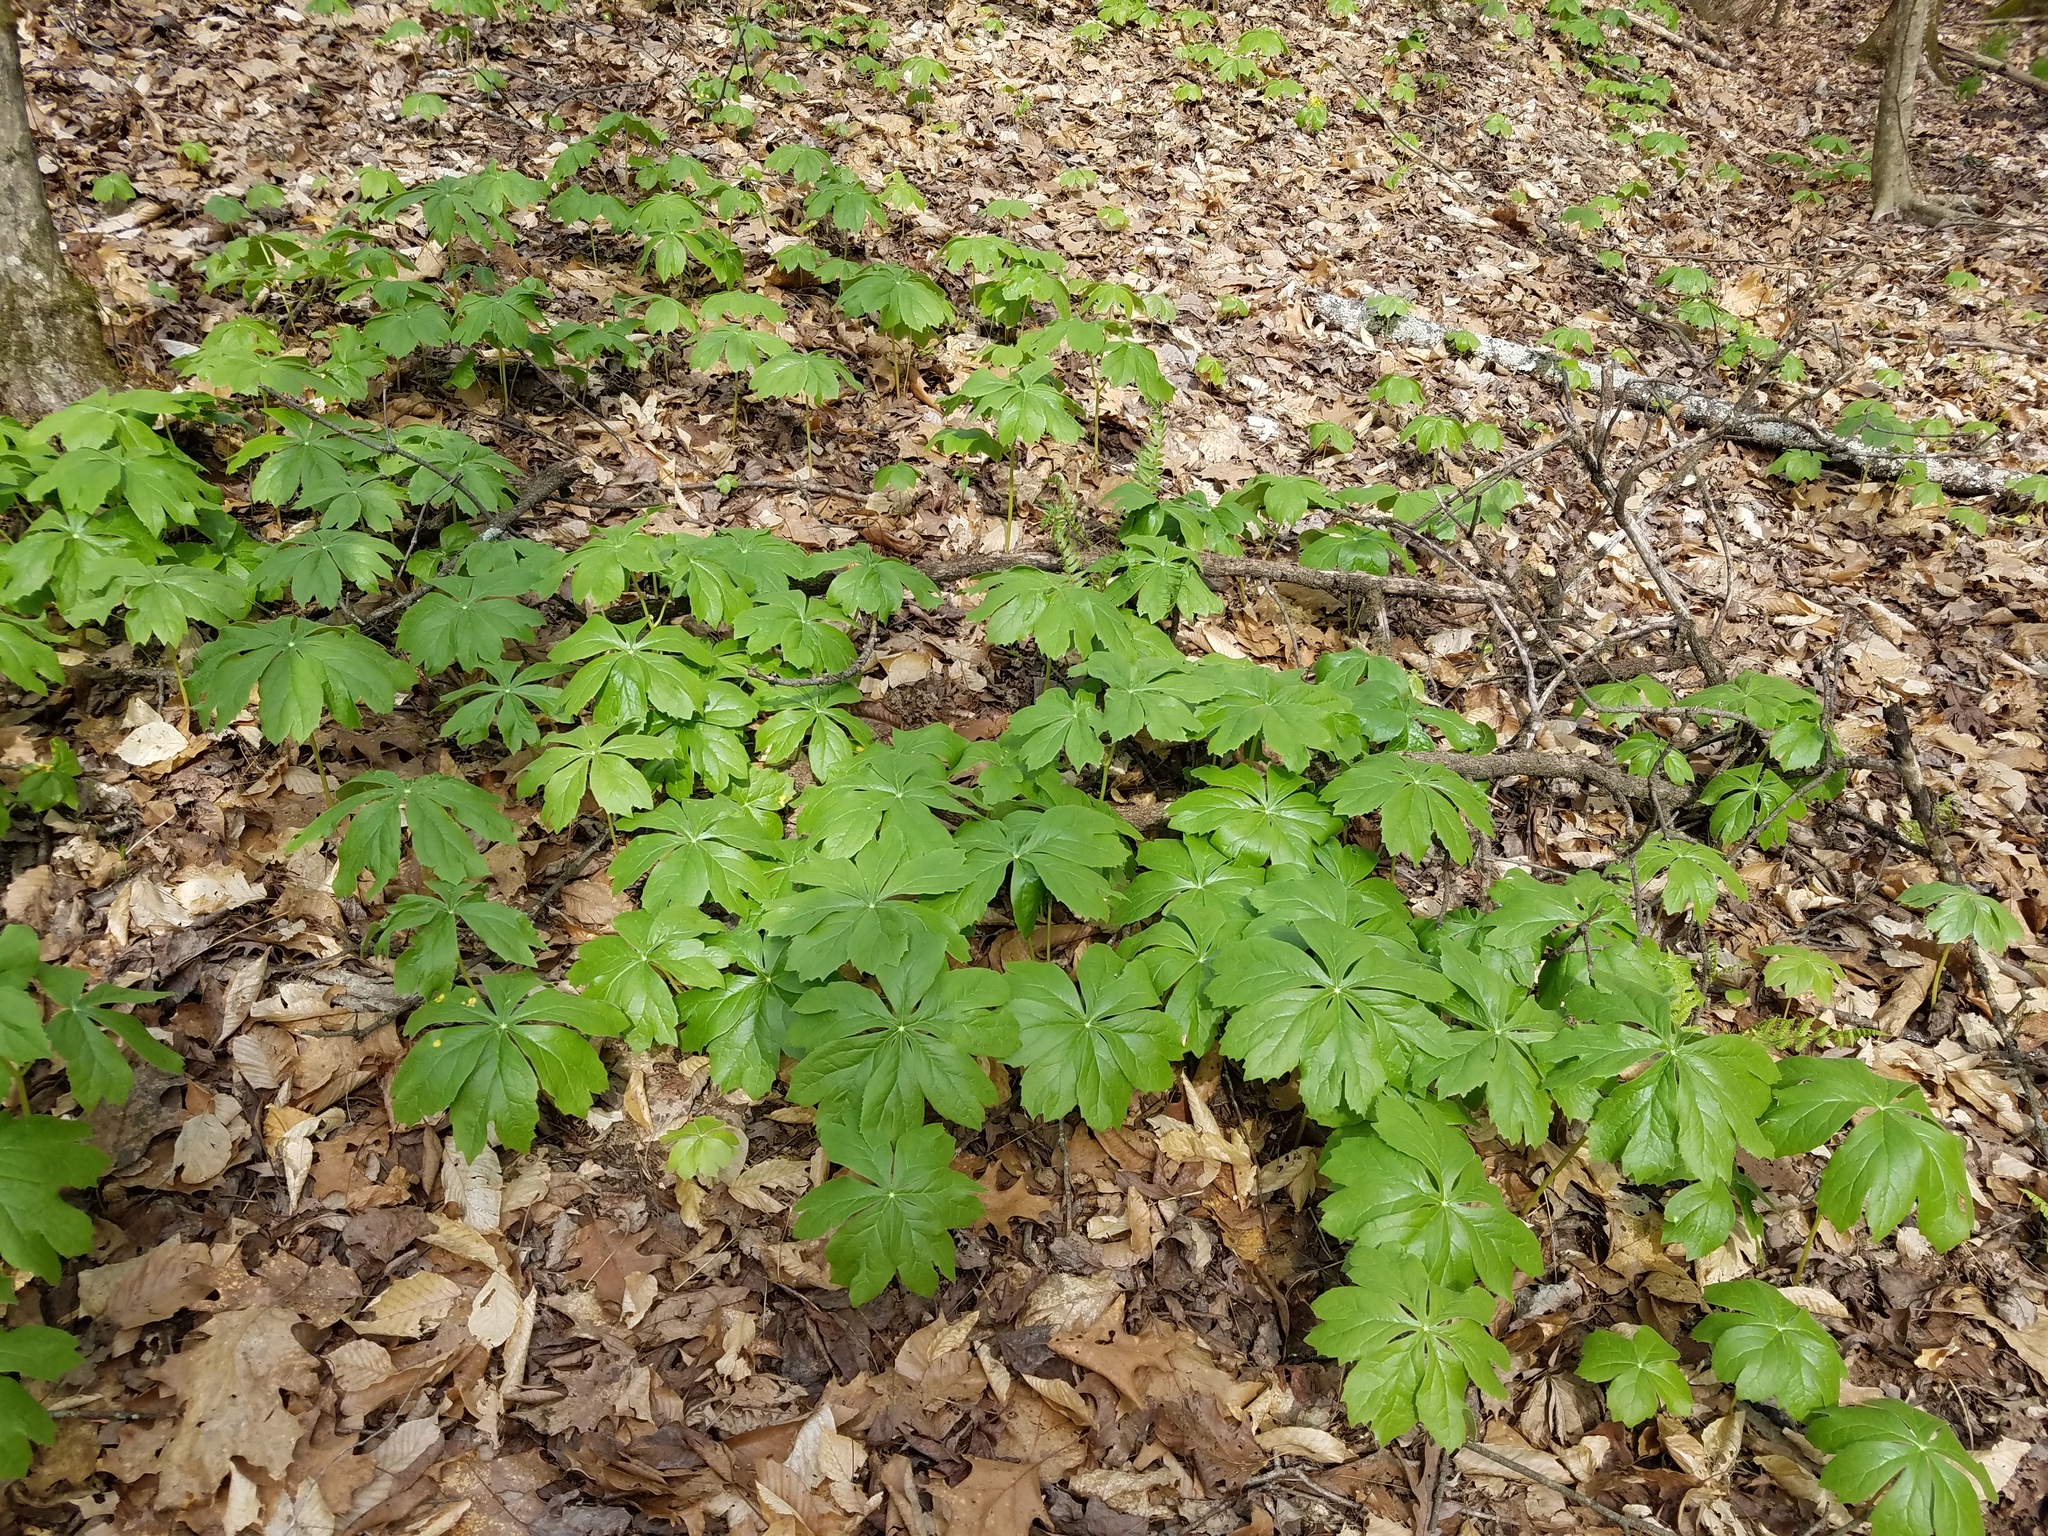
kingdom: Plantae
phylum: Tracheophyta
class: Magnoliopsida
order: Ranunculales
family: Berberidaceae
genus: Podophyllum
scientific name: Podophyllum peltatum
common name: Wild mandrake
